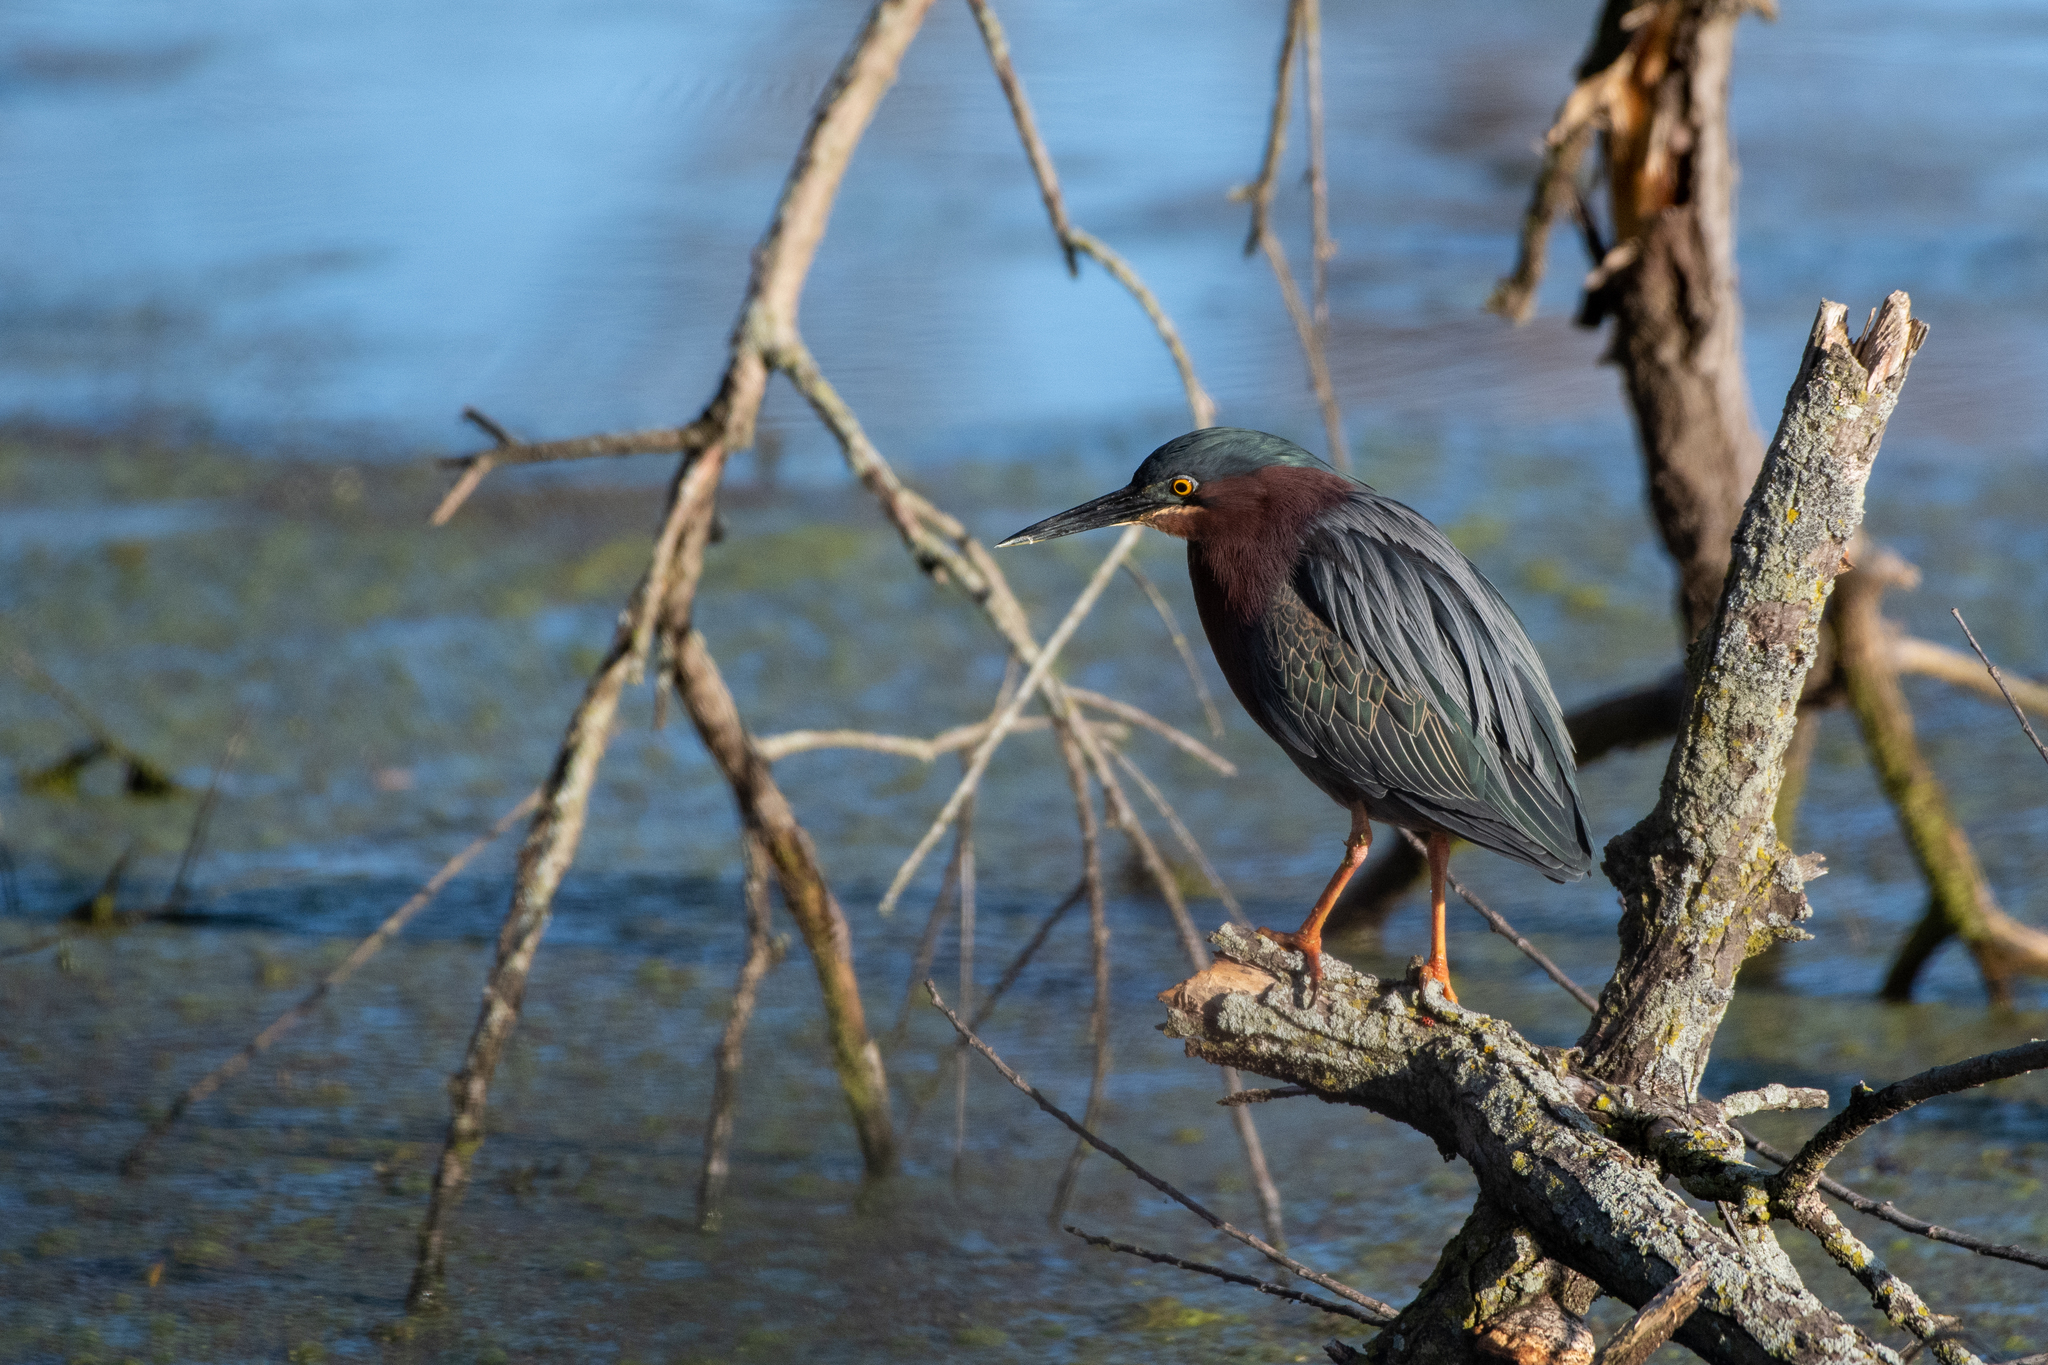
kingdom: Animalia
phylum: Chordata
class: Aves
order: Pelecaniformes
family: Ardeidae
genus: Butorides
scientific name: Butorides virescens
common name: Green heron
